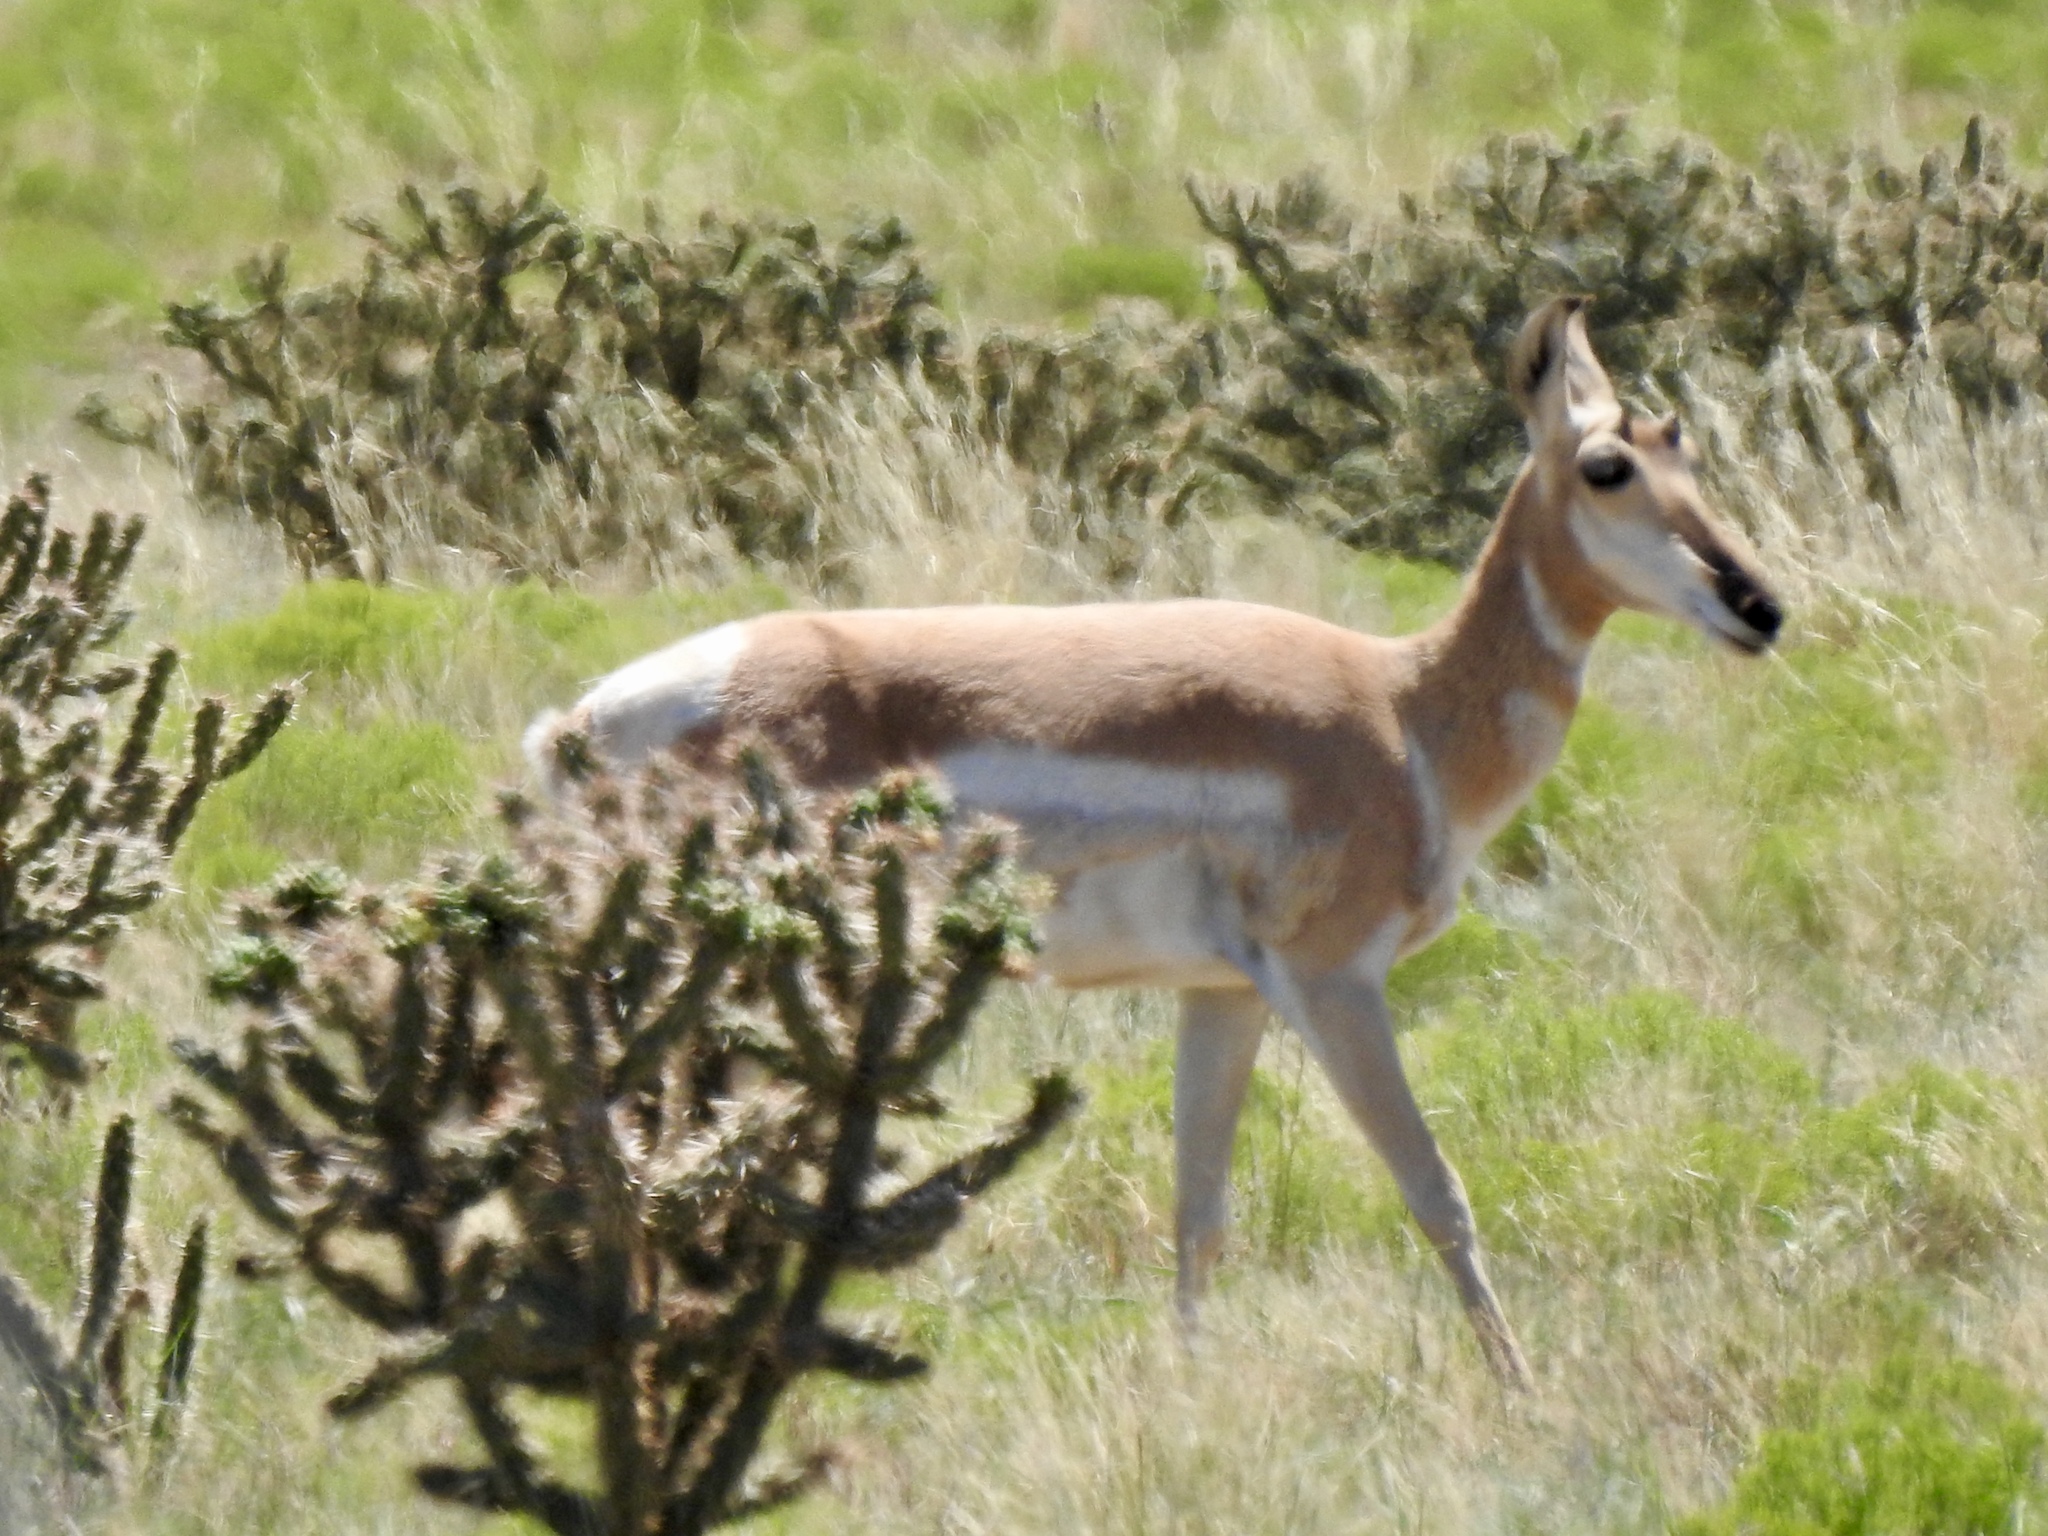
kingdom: Animalia
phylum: Chordata
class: Mammalia
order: Artiodactyla
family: Antilocapridae
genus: Antilocapra
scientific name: Antilocapra americana
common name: Pronghorn
